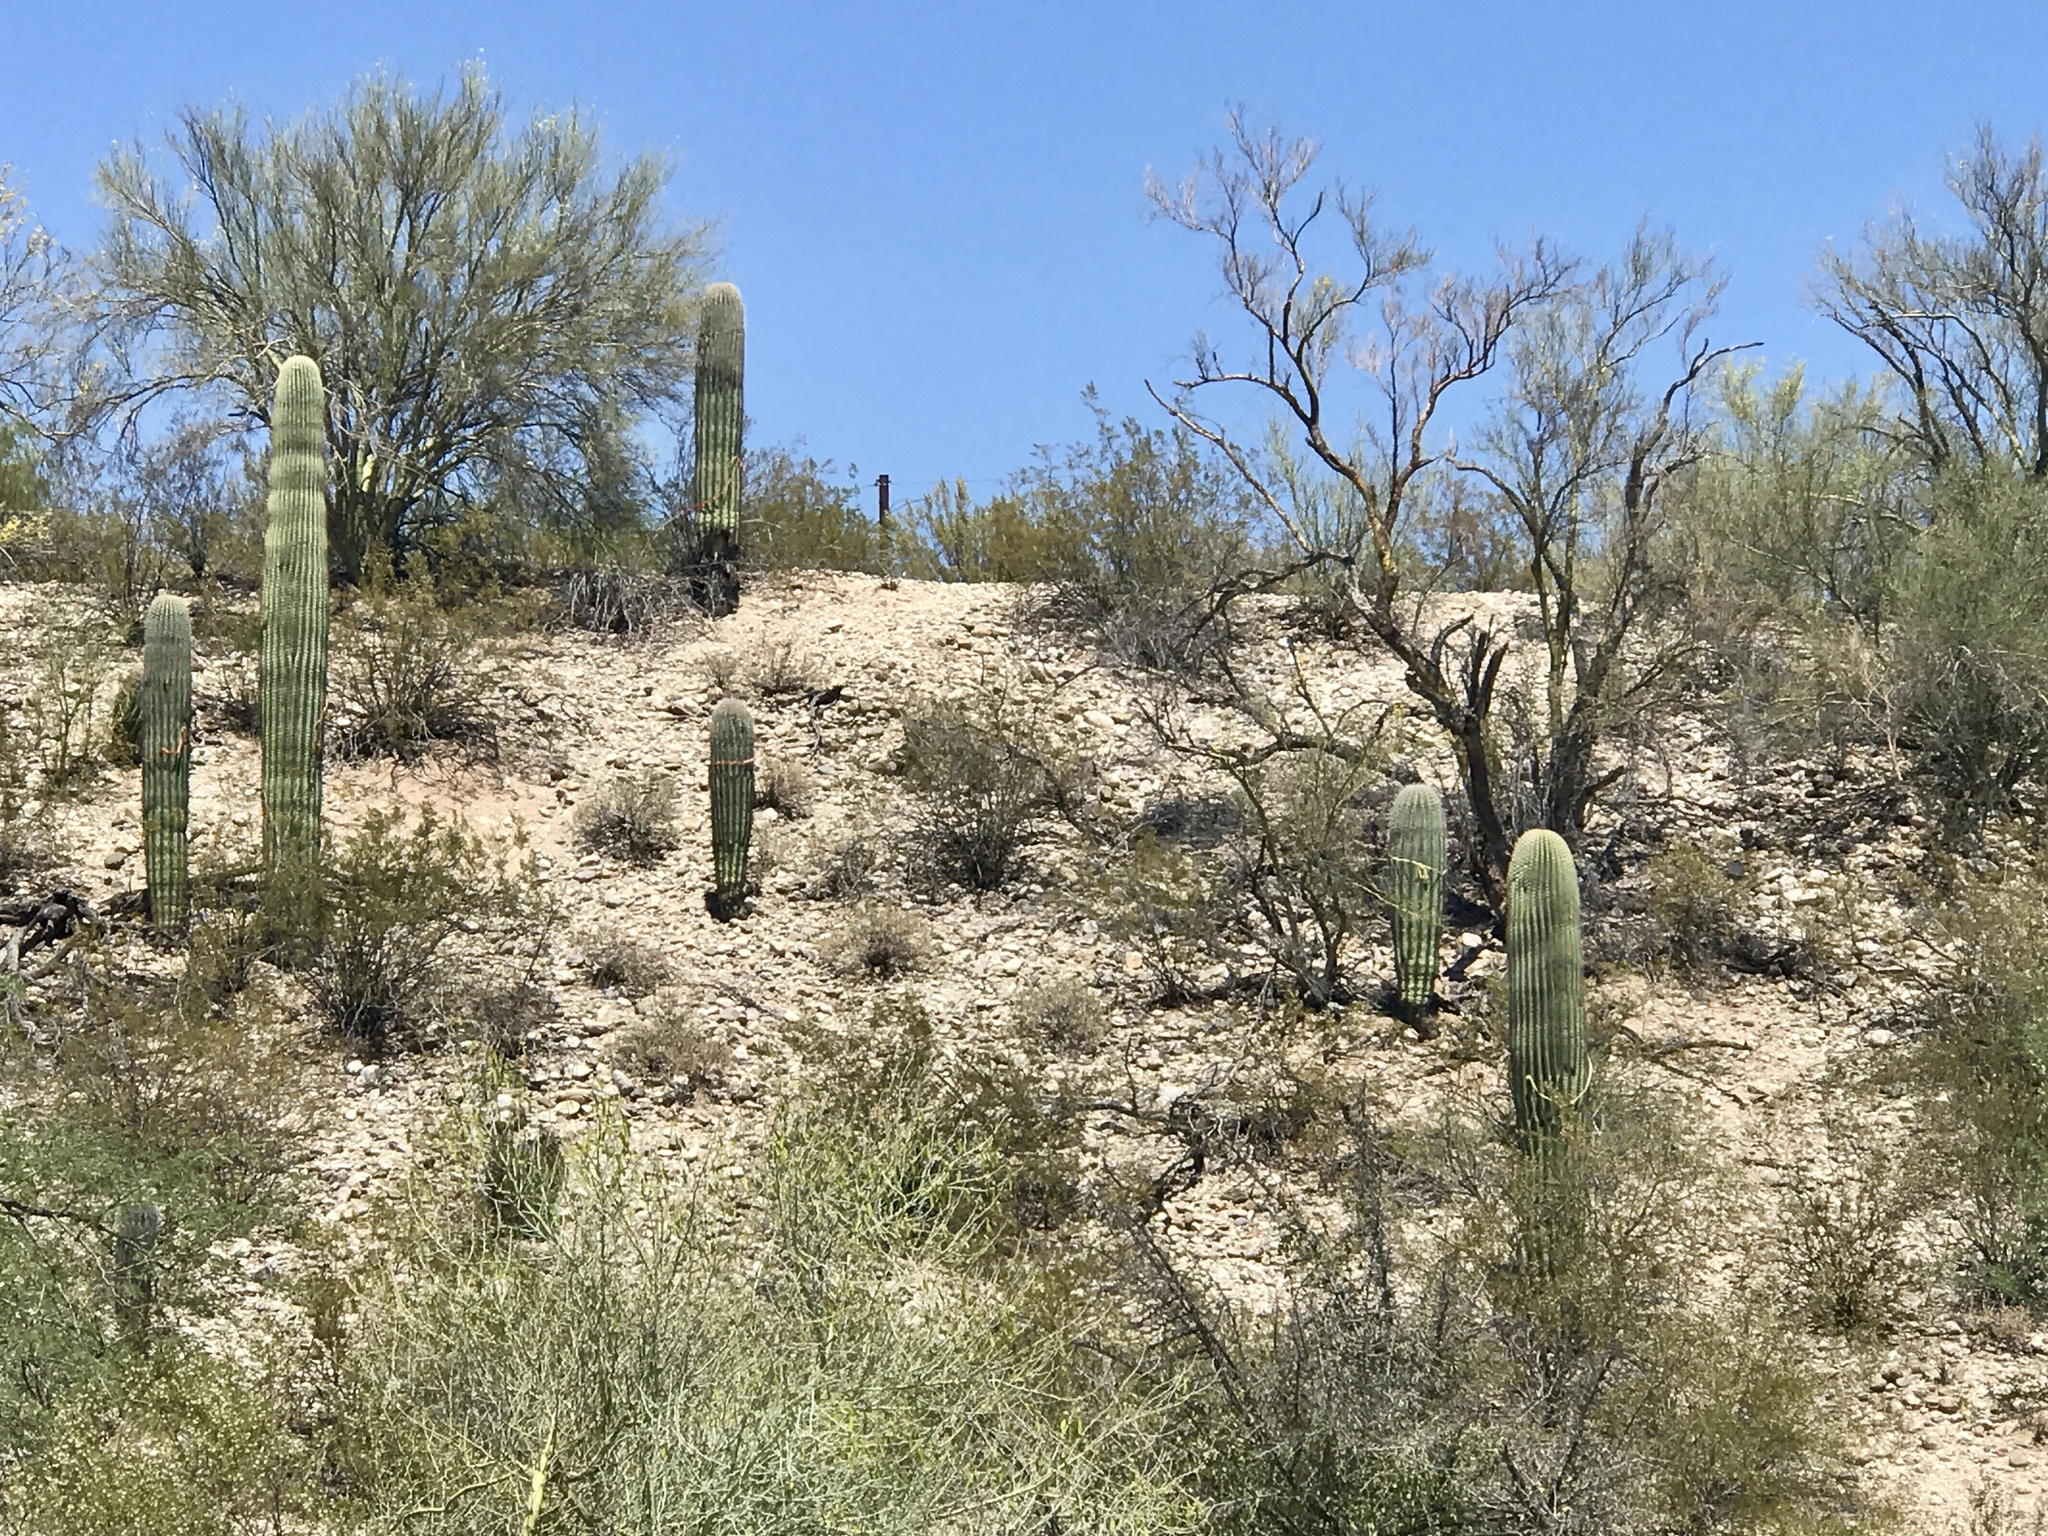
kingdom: Plantae
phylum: Tracheophyta
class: Magnoliopsida
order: Caryophyllales
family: Cactaceae
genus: Carnegiea
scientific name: Carnegiea gigantea
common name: Saguaro
